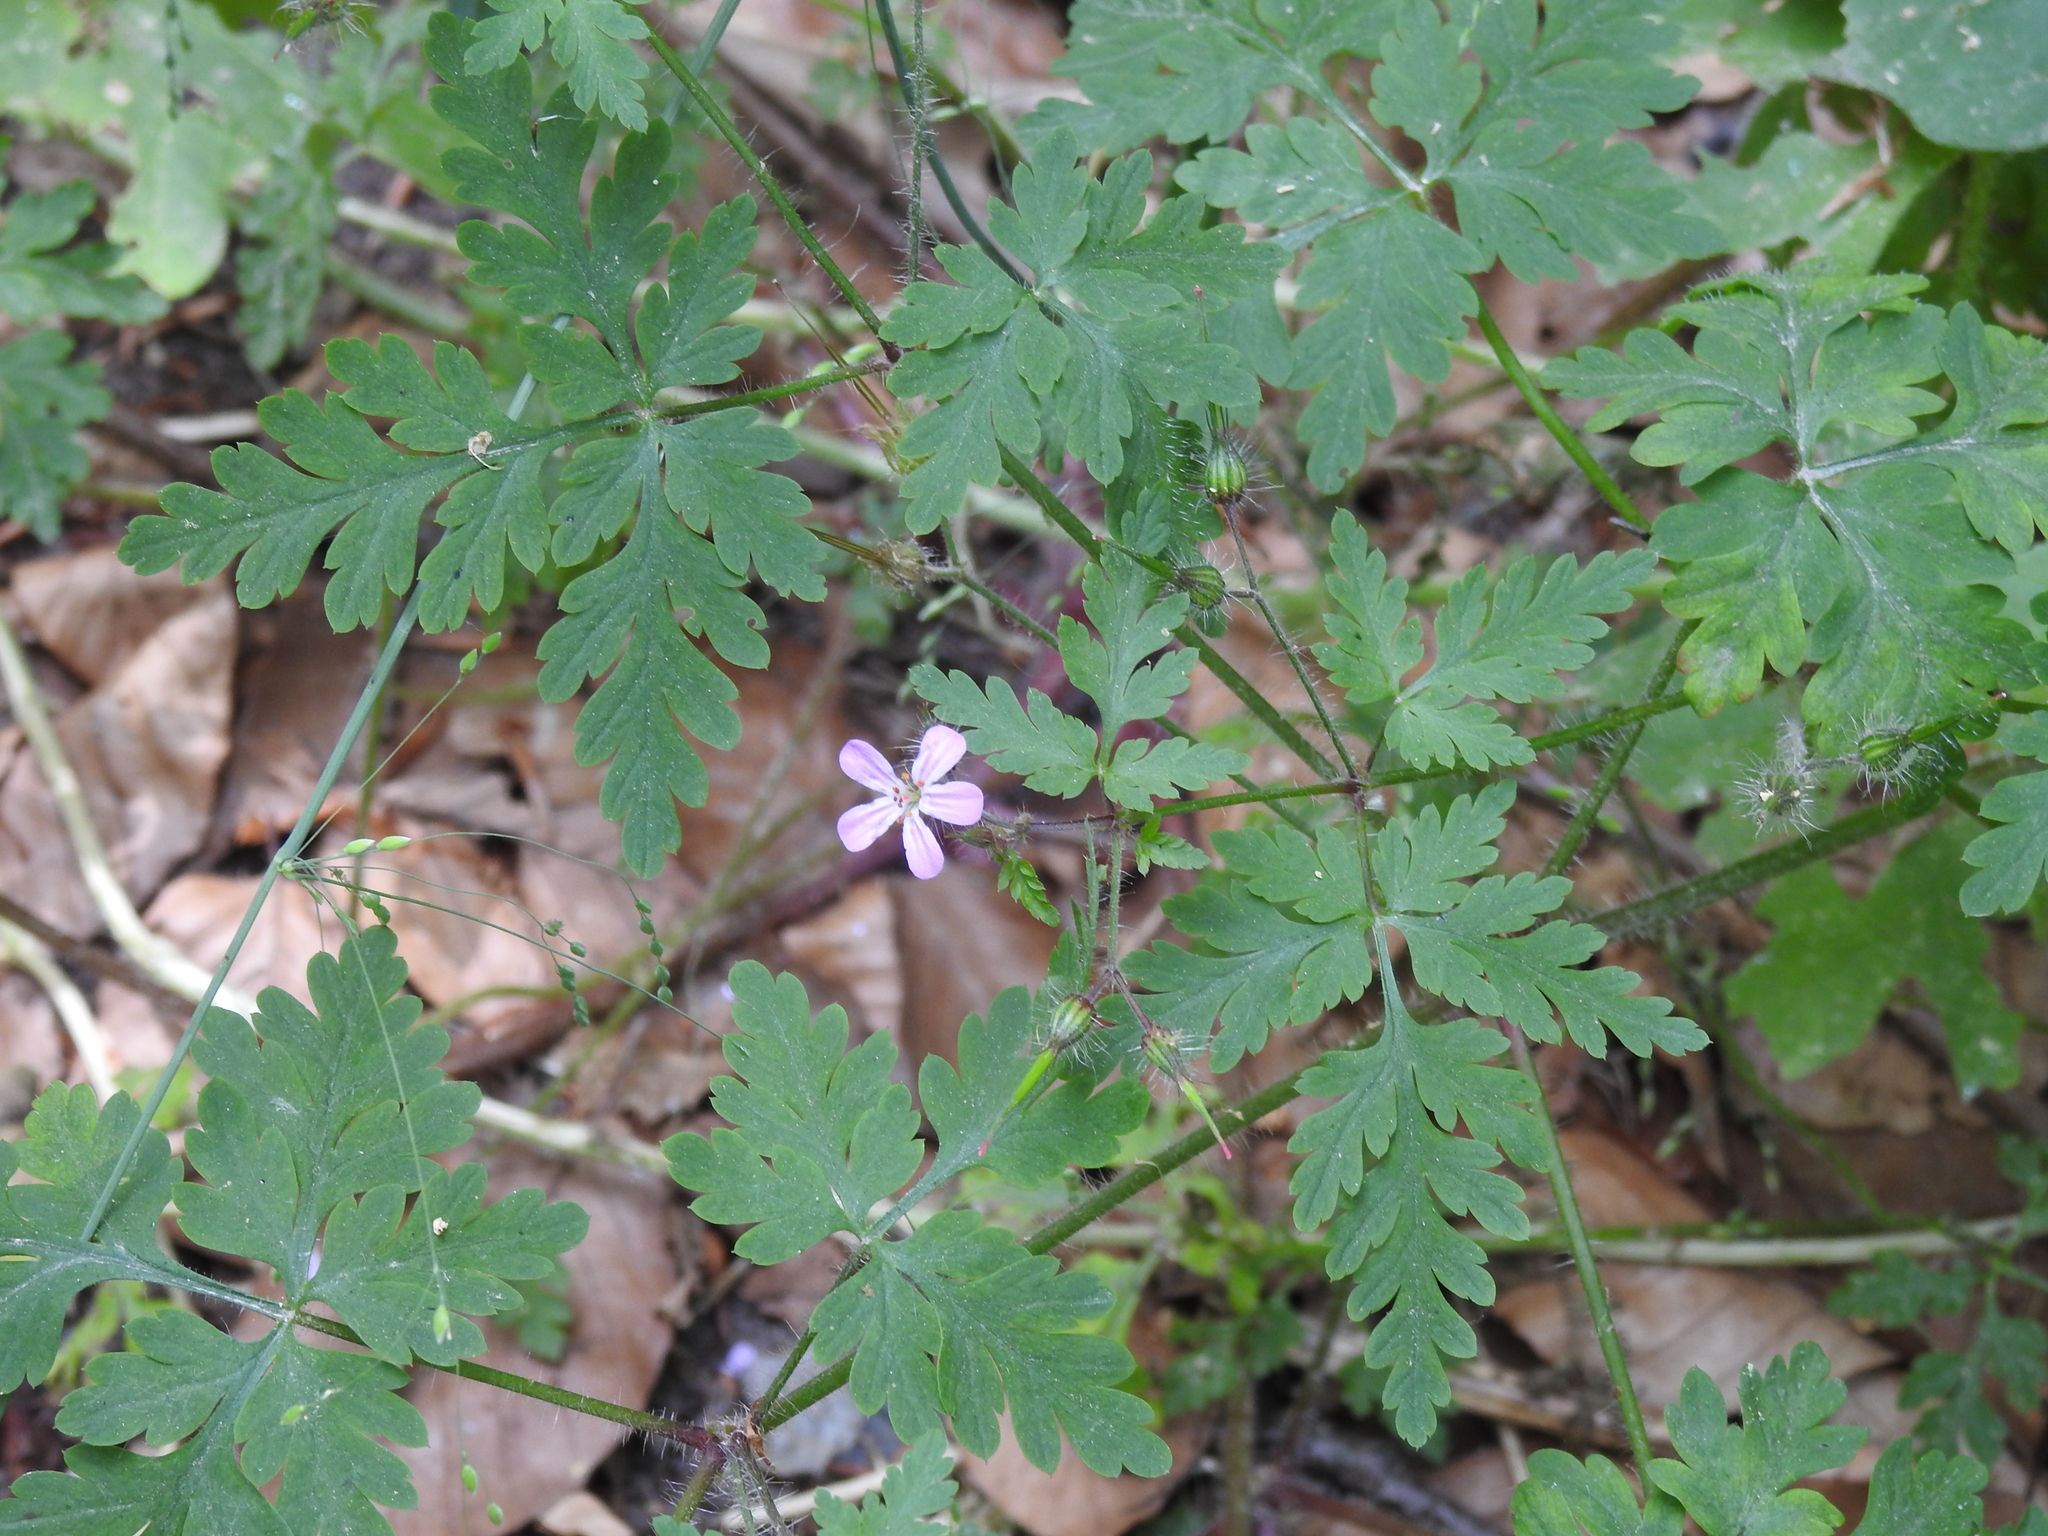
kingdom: Plantae
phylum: Tracheophyta
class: Magnoliopsida
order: Geraniales
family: Geraniaceae
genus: Geranium
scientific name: Geranium robertianum
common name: Herb-robert
